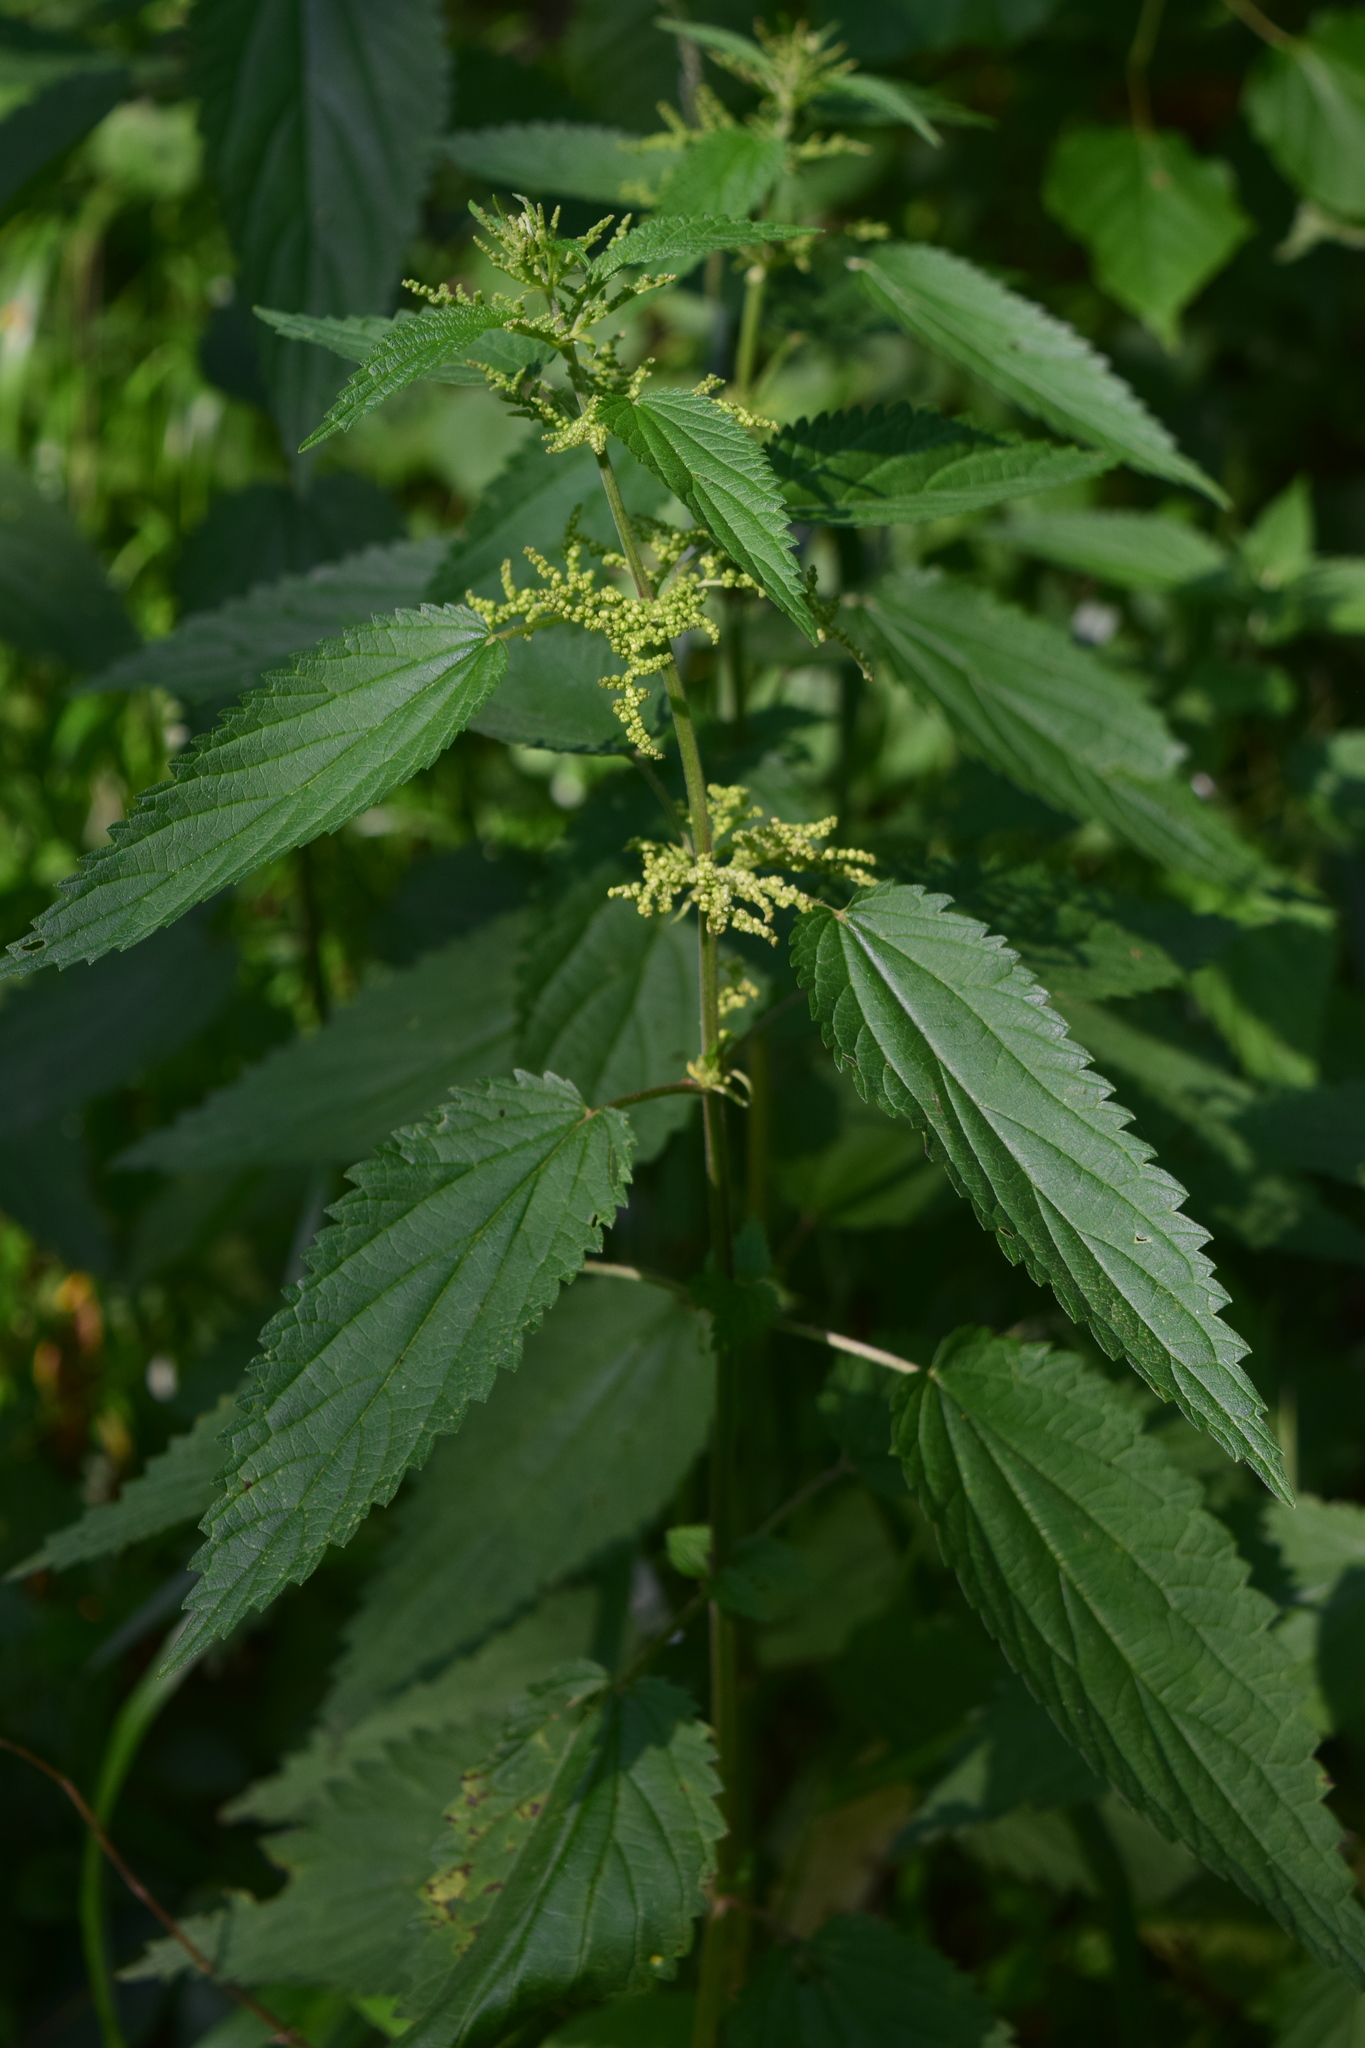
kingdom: Plantae
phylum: Tracheophyta
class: Magnoliopsida
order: Rosales
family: Urticaceae
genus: Urtica
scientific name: Urtica dioica
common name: Common nettle
